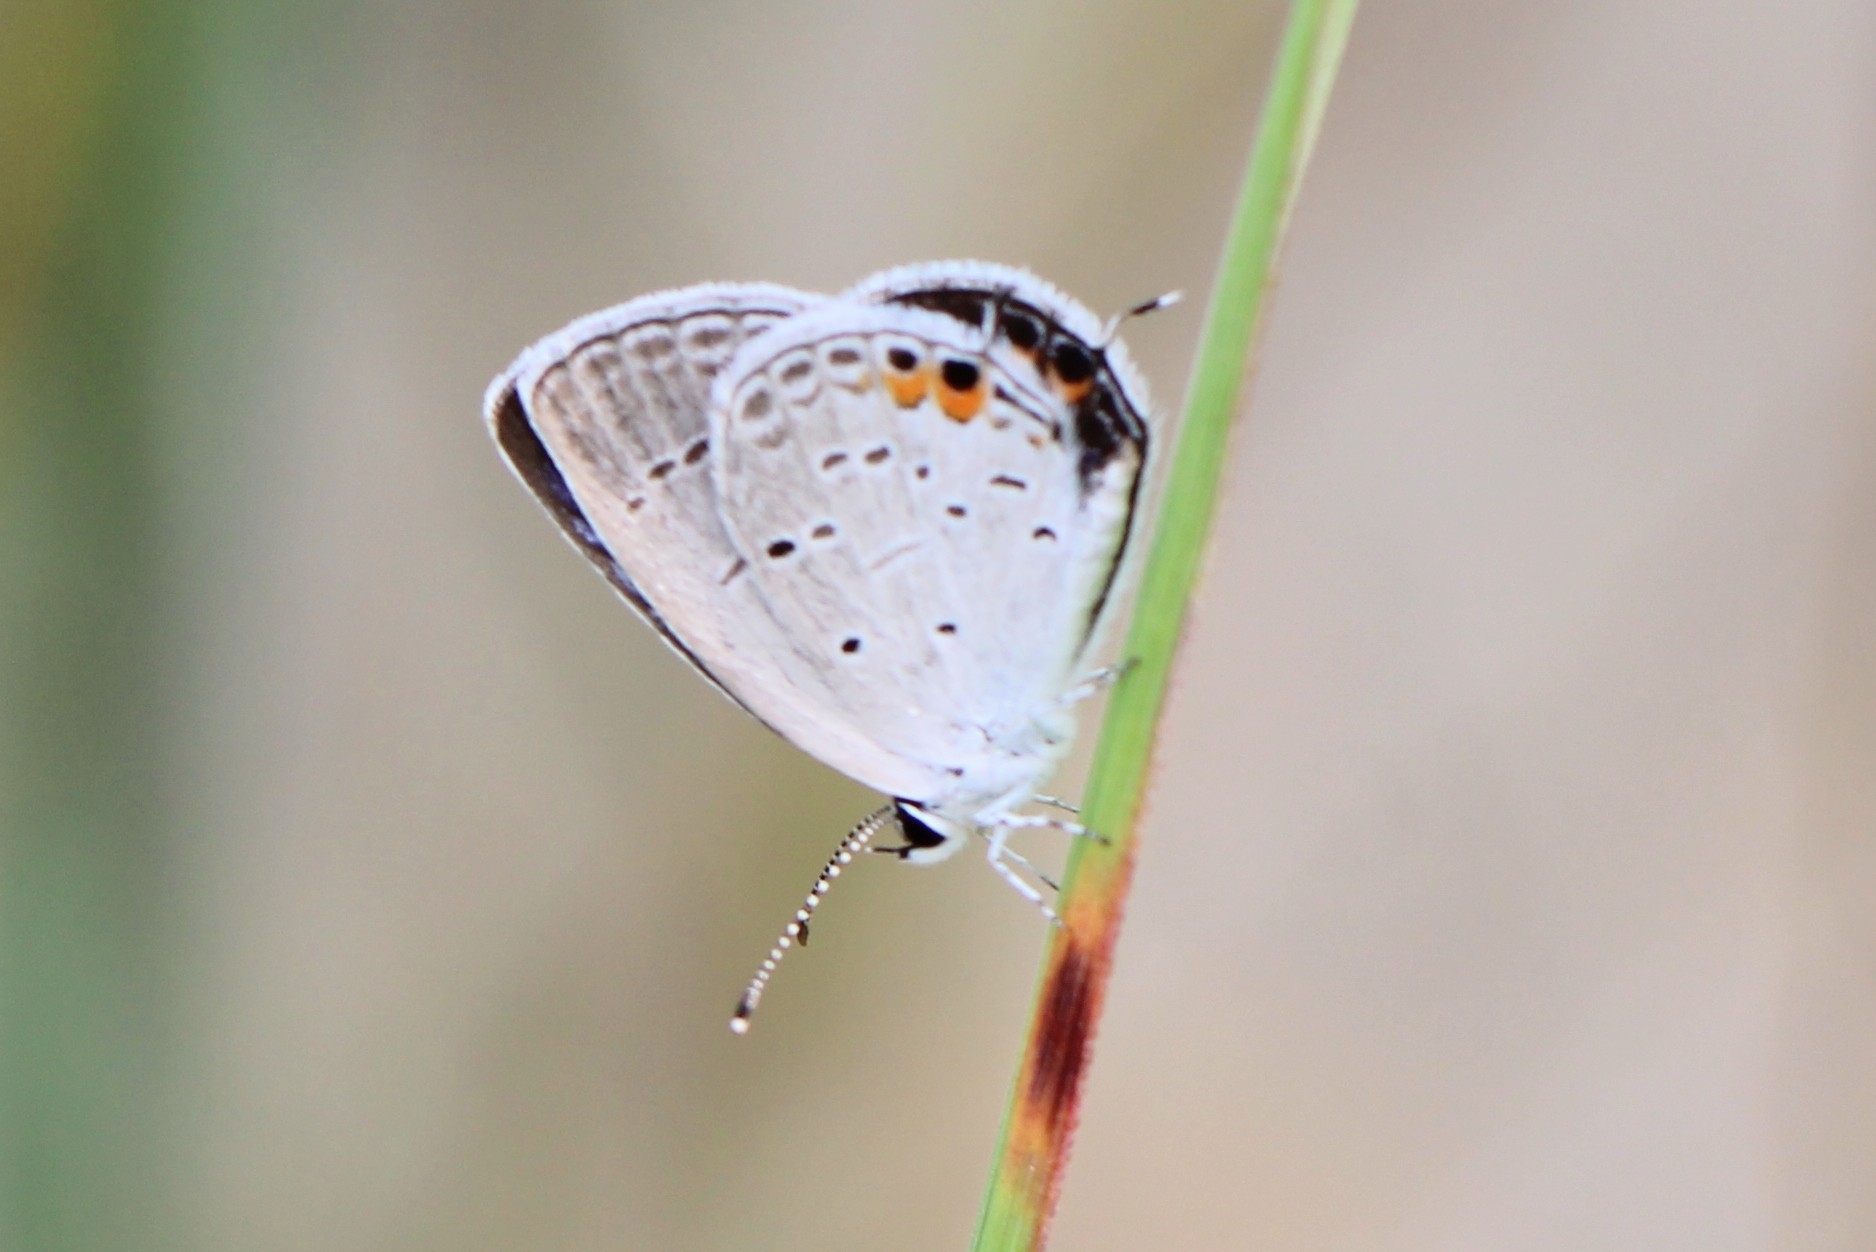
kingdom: Animalia
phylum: Arthropoda
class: Insecta
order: Lepidoptera
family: Lycaenidae
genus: Elkalyce
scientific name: Elkalyce comyntas
